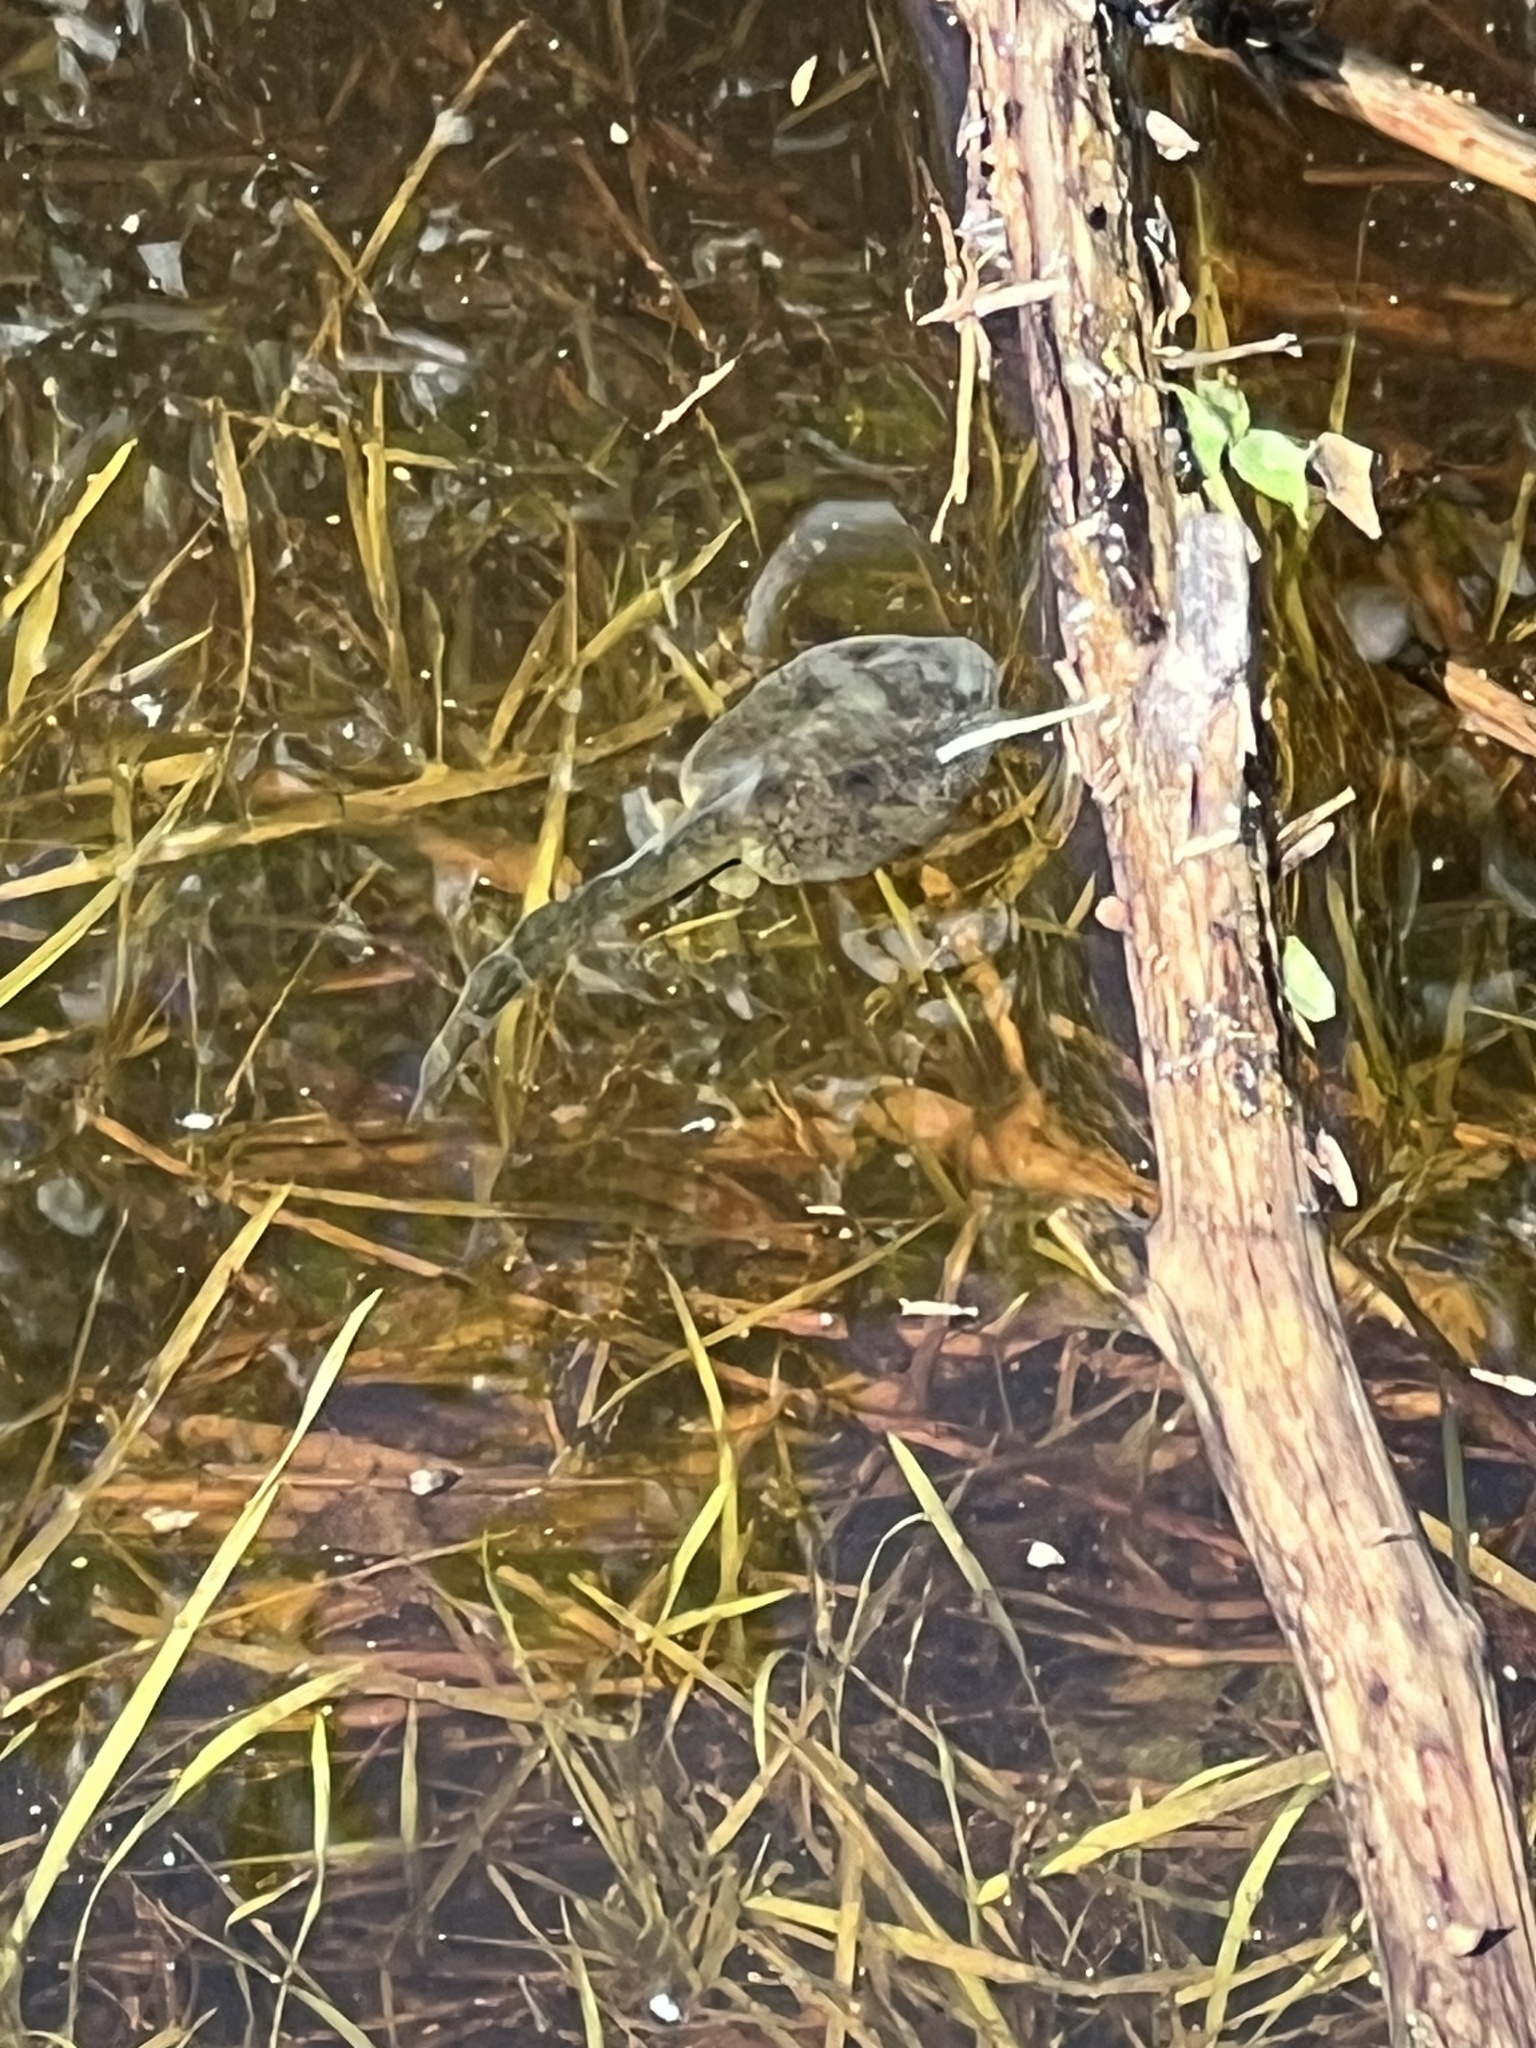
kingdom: Animalia
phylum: Chordata
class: Amphibia
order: Anura
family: Scaphiopodidae
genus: Spea
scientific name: Spea hammondii
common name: Western spadefoot toad
